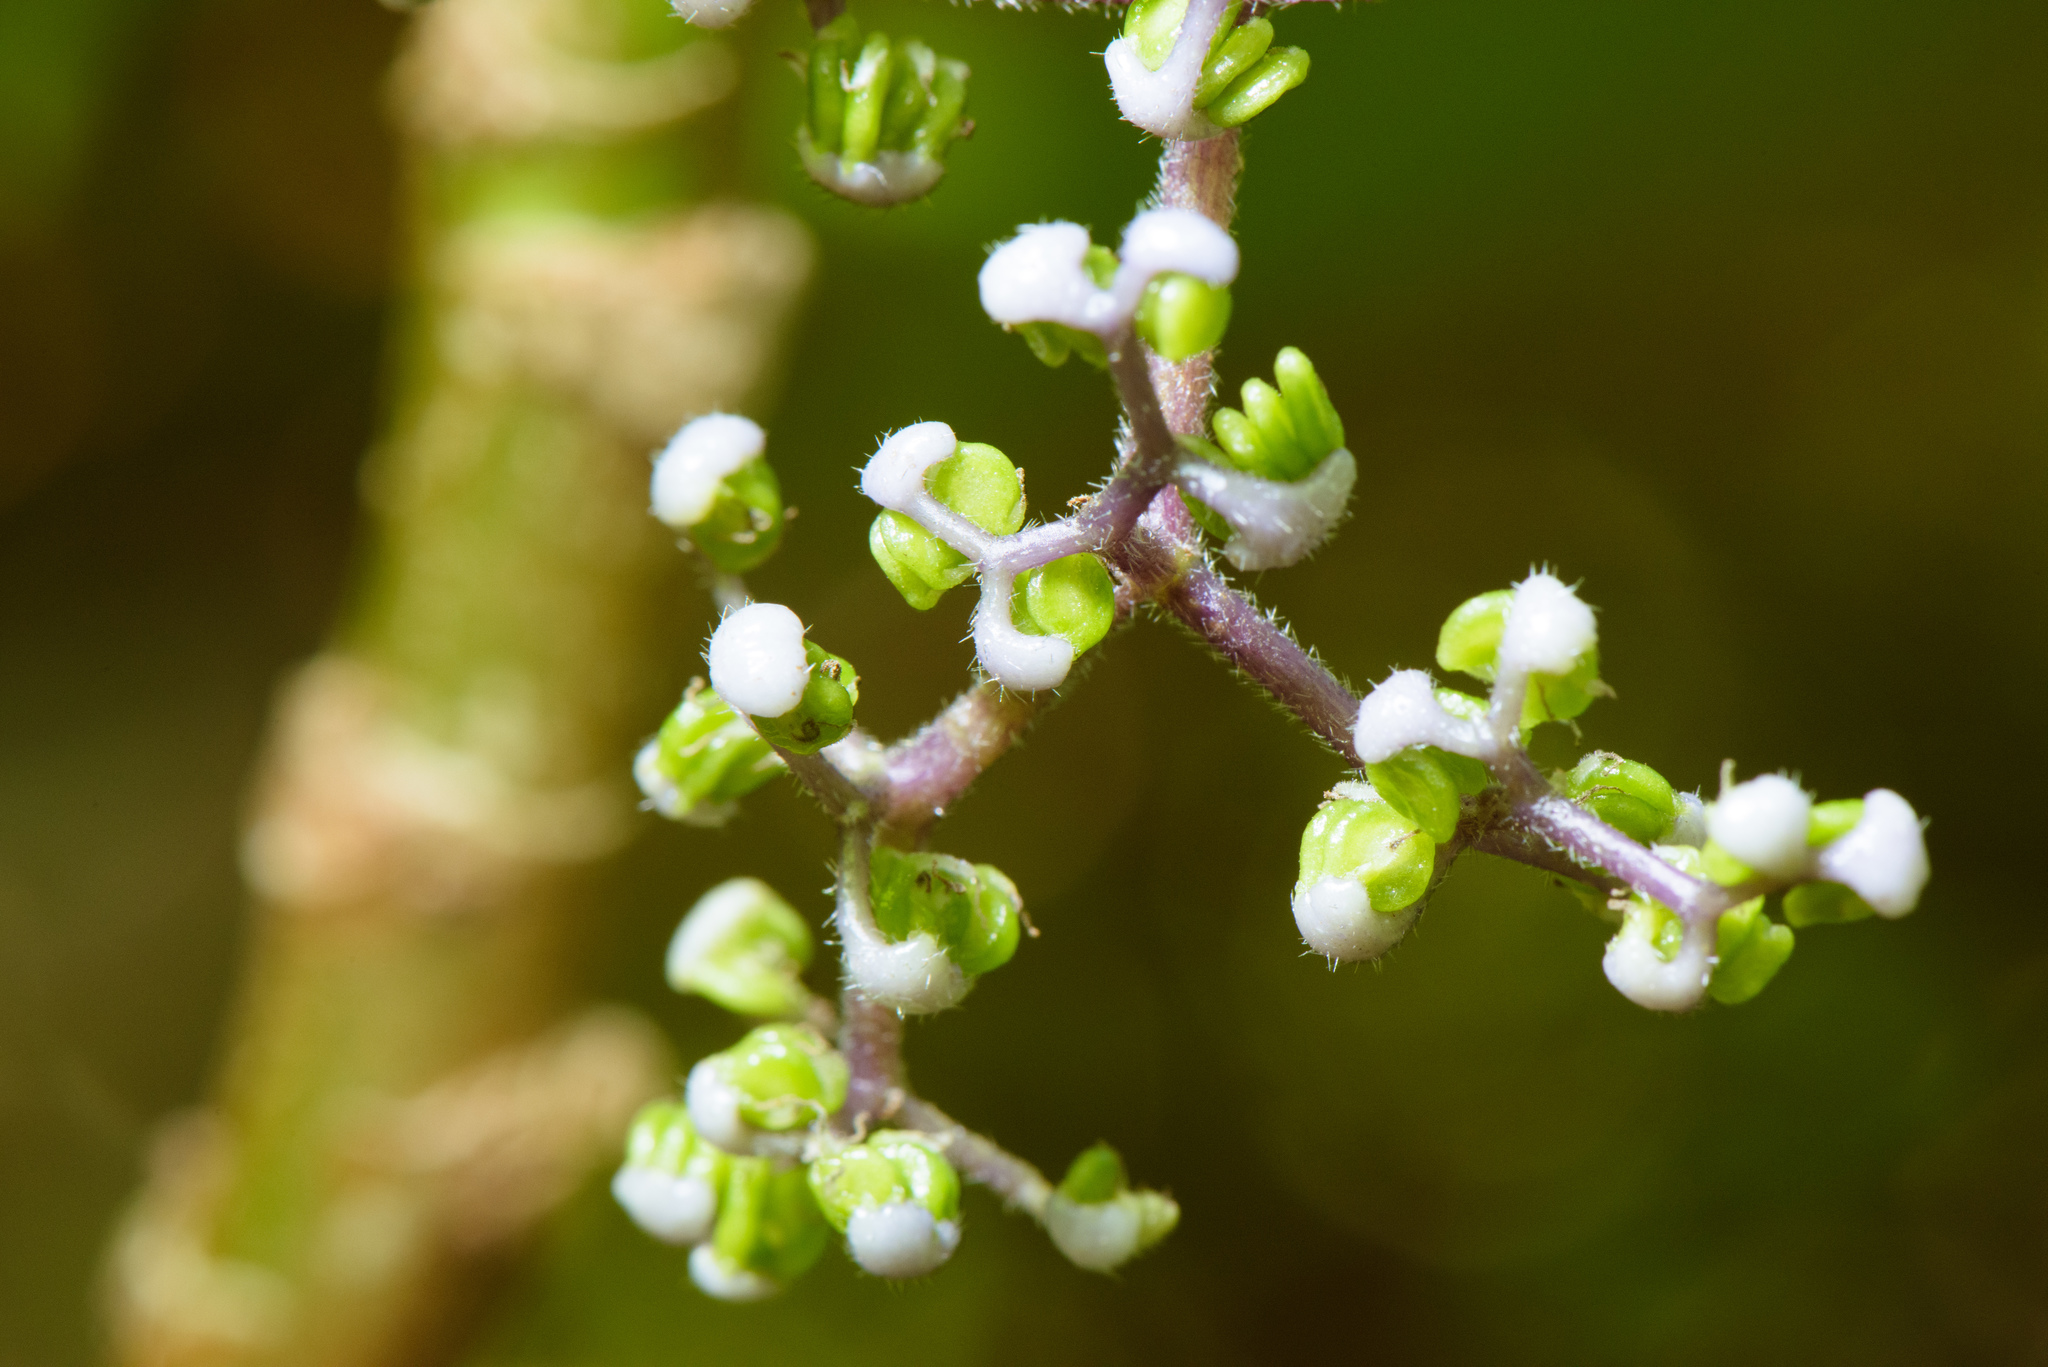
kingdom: Plantae
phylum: Tracheophyta
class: Magnoliopsida
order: Rosales
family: Urticaceae
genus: Dendrocnide
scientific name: Dendrocnide meyeniana
